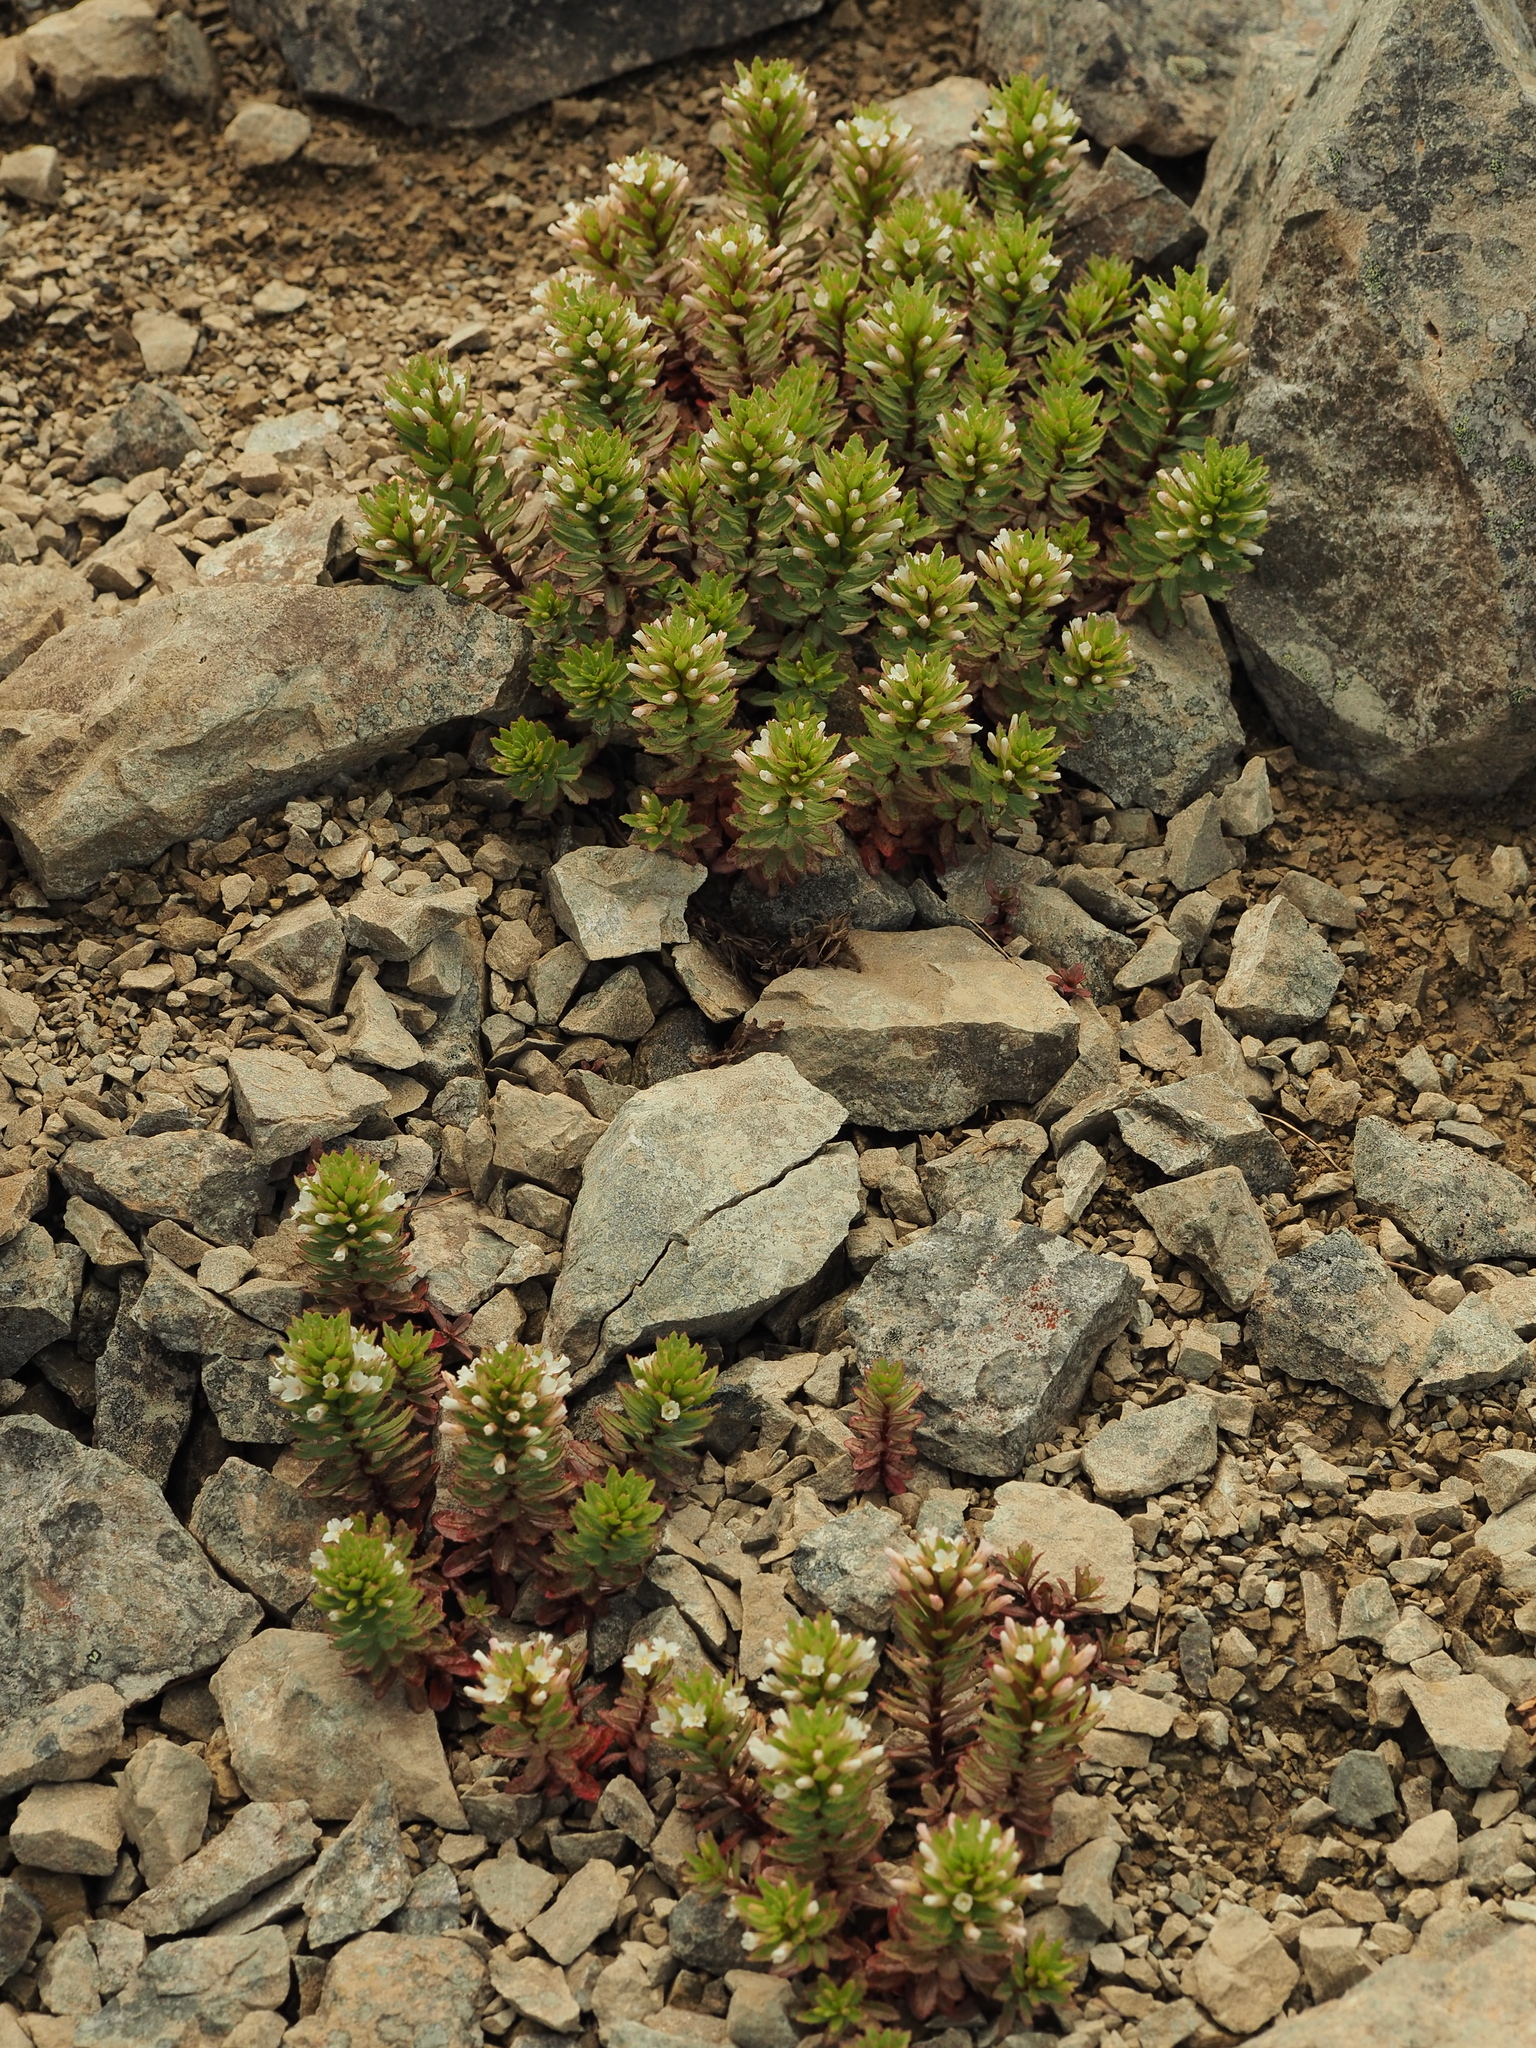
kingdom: Plantae
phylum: Tracheophyta
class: Magnoliopsida
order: Myrtales
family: Onagraceae
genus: Epilobium
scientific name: Epilobium pycnostachyum
